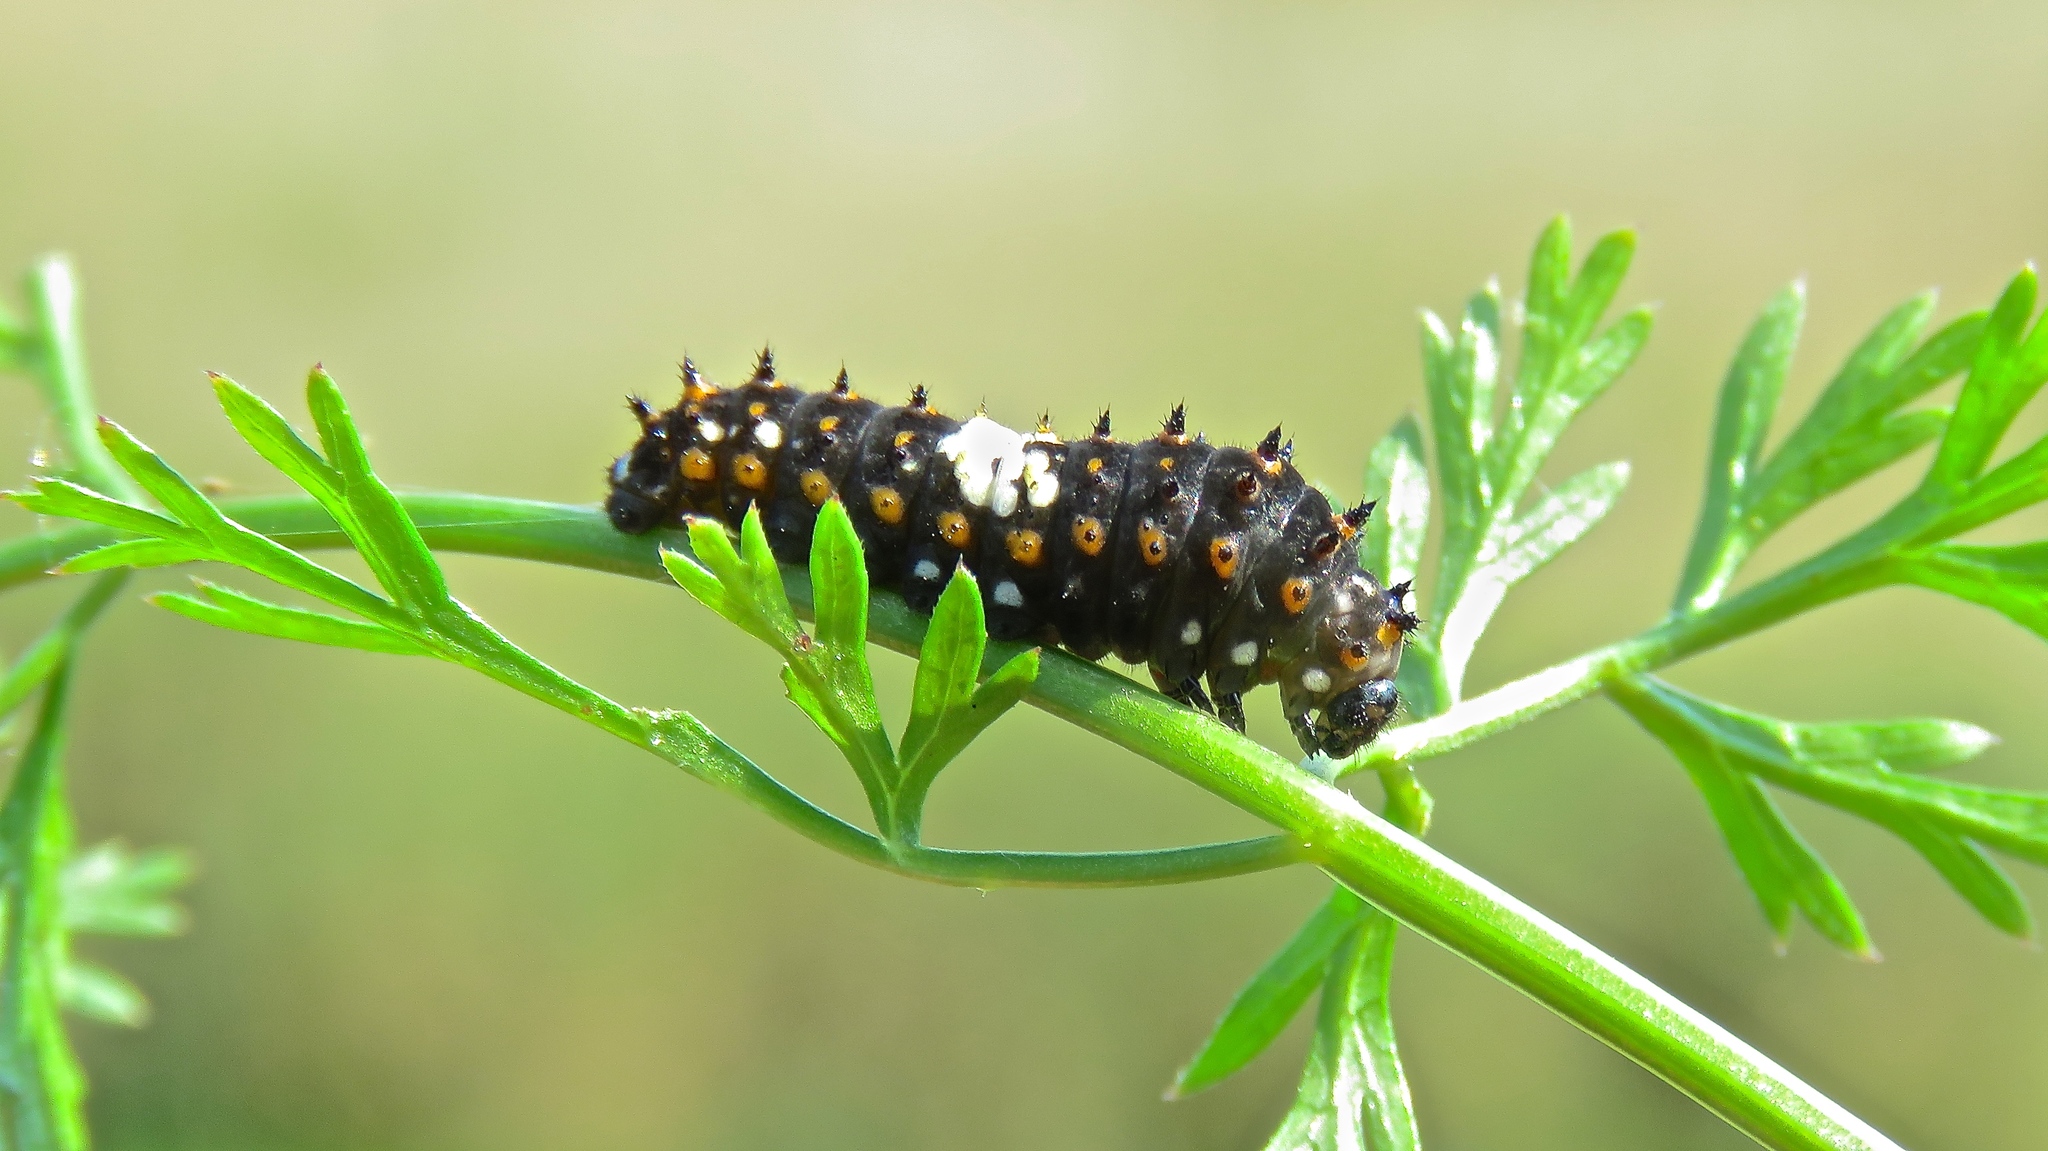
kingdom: Animalia
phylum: Arthropoda
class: Insecta
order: Lepidoptera
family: Papilionidae
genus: Papilio
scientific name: Papilio polyxenes
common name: Black swallowtail
